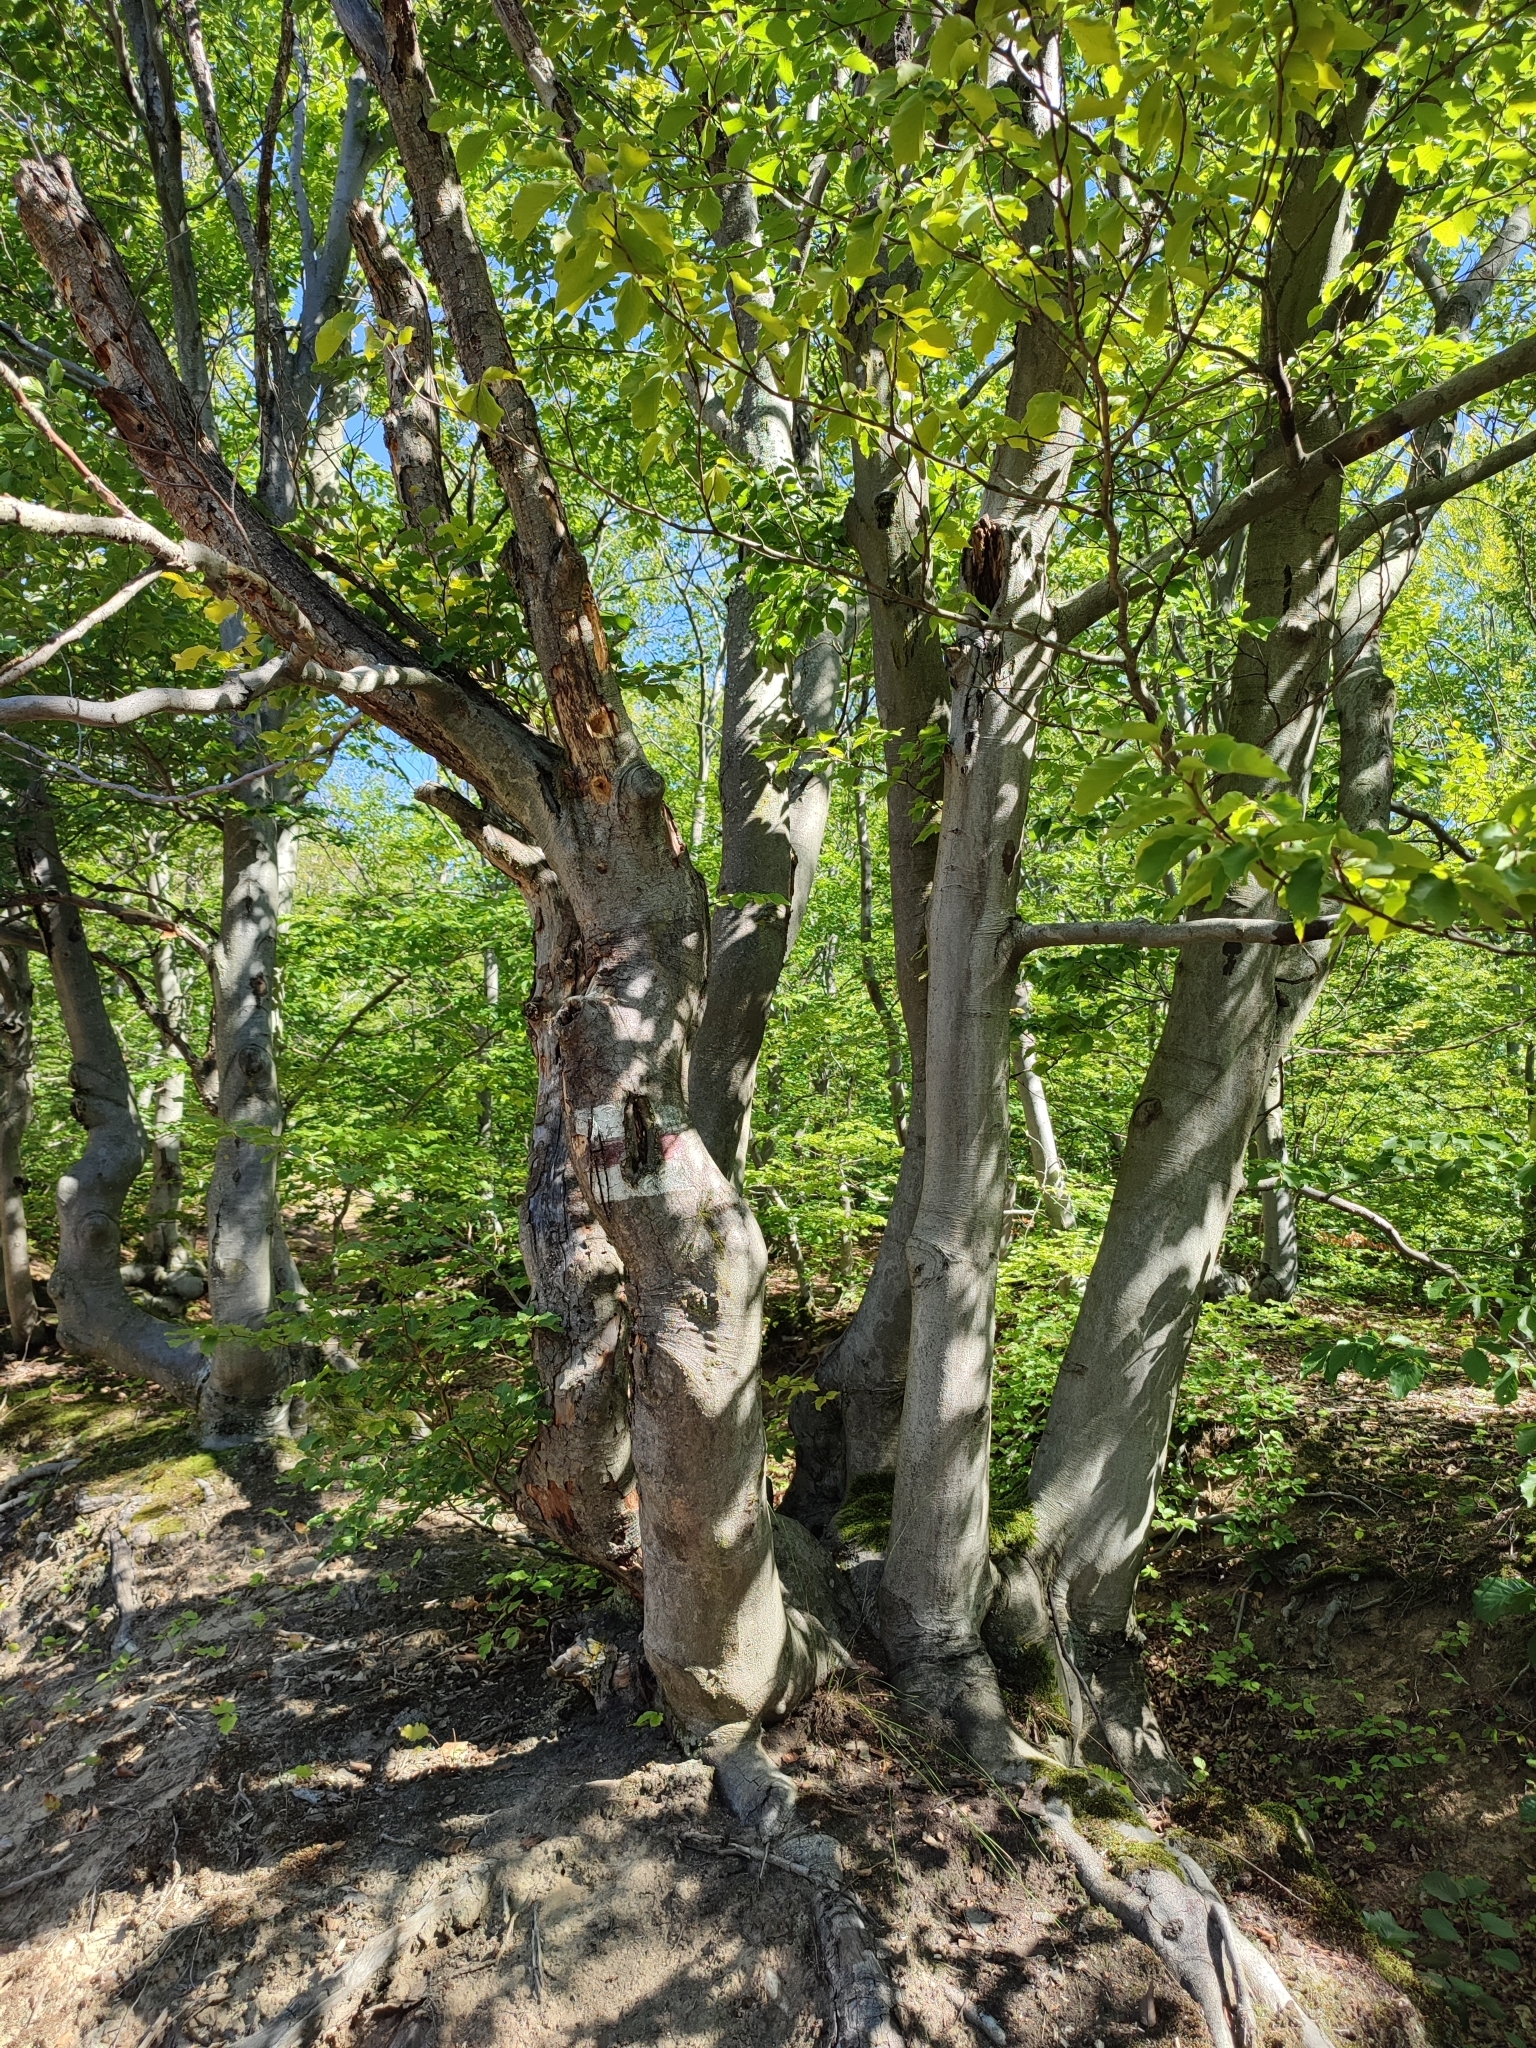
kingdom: Plantae
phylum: Tracheophyta
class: Magnoliopsida
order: Fagales
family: Fagaceae
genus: Fagus
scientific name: Fagus sylvatica
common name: Beech
